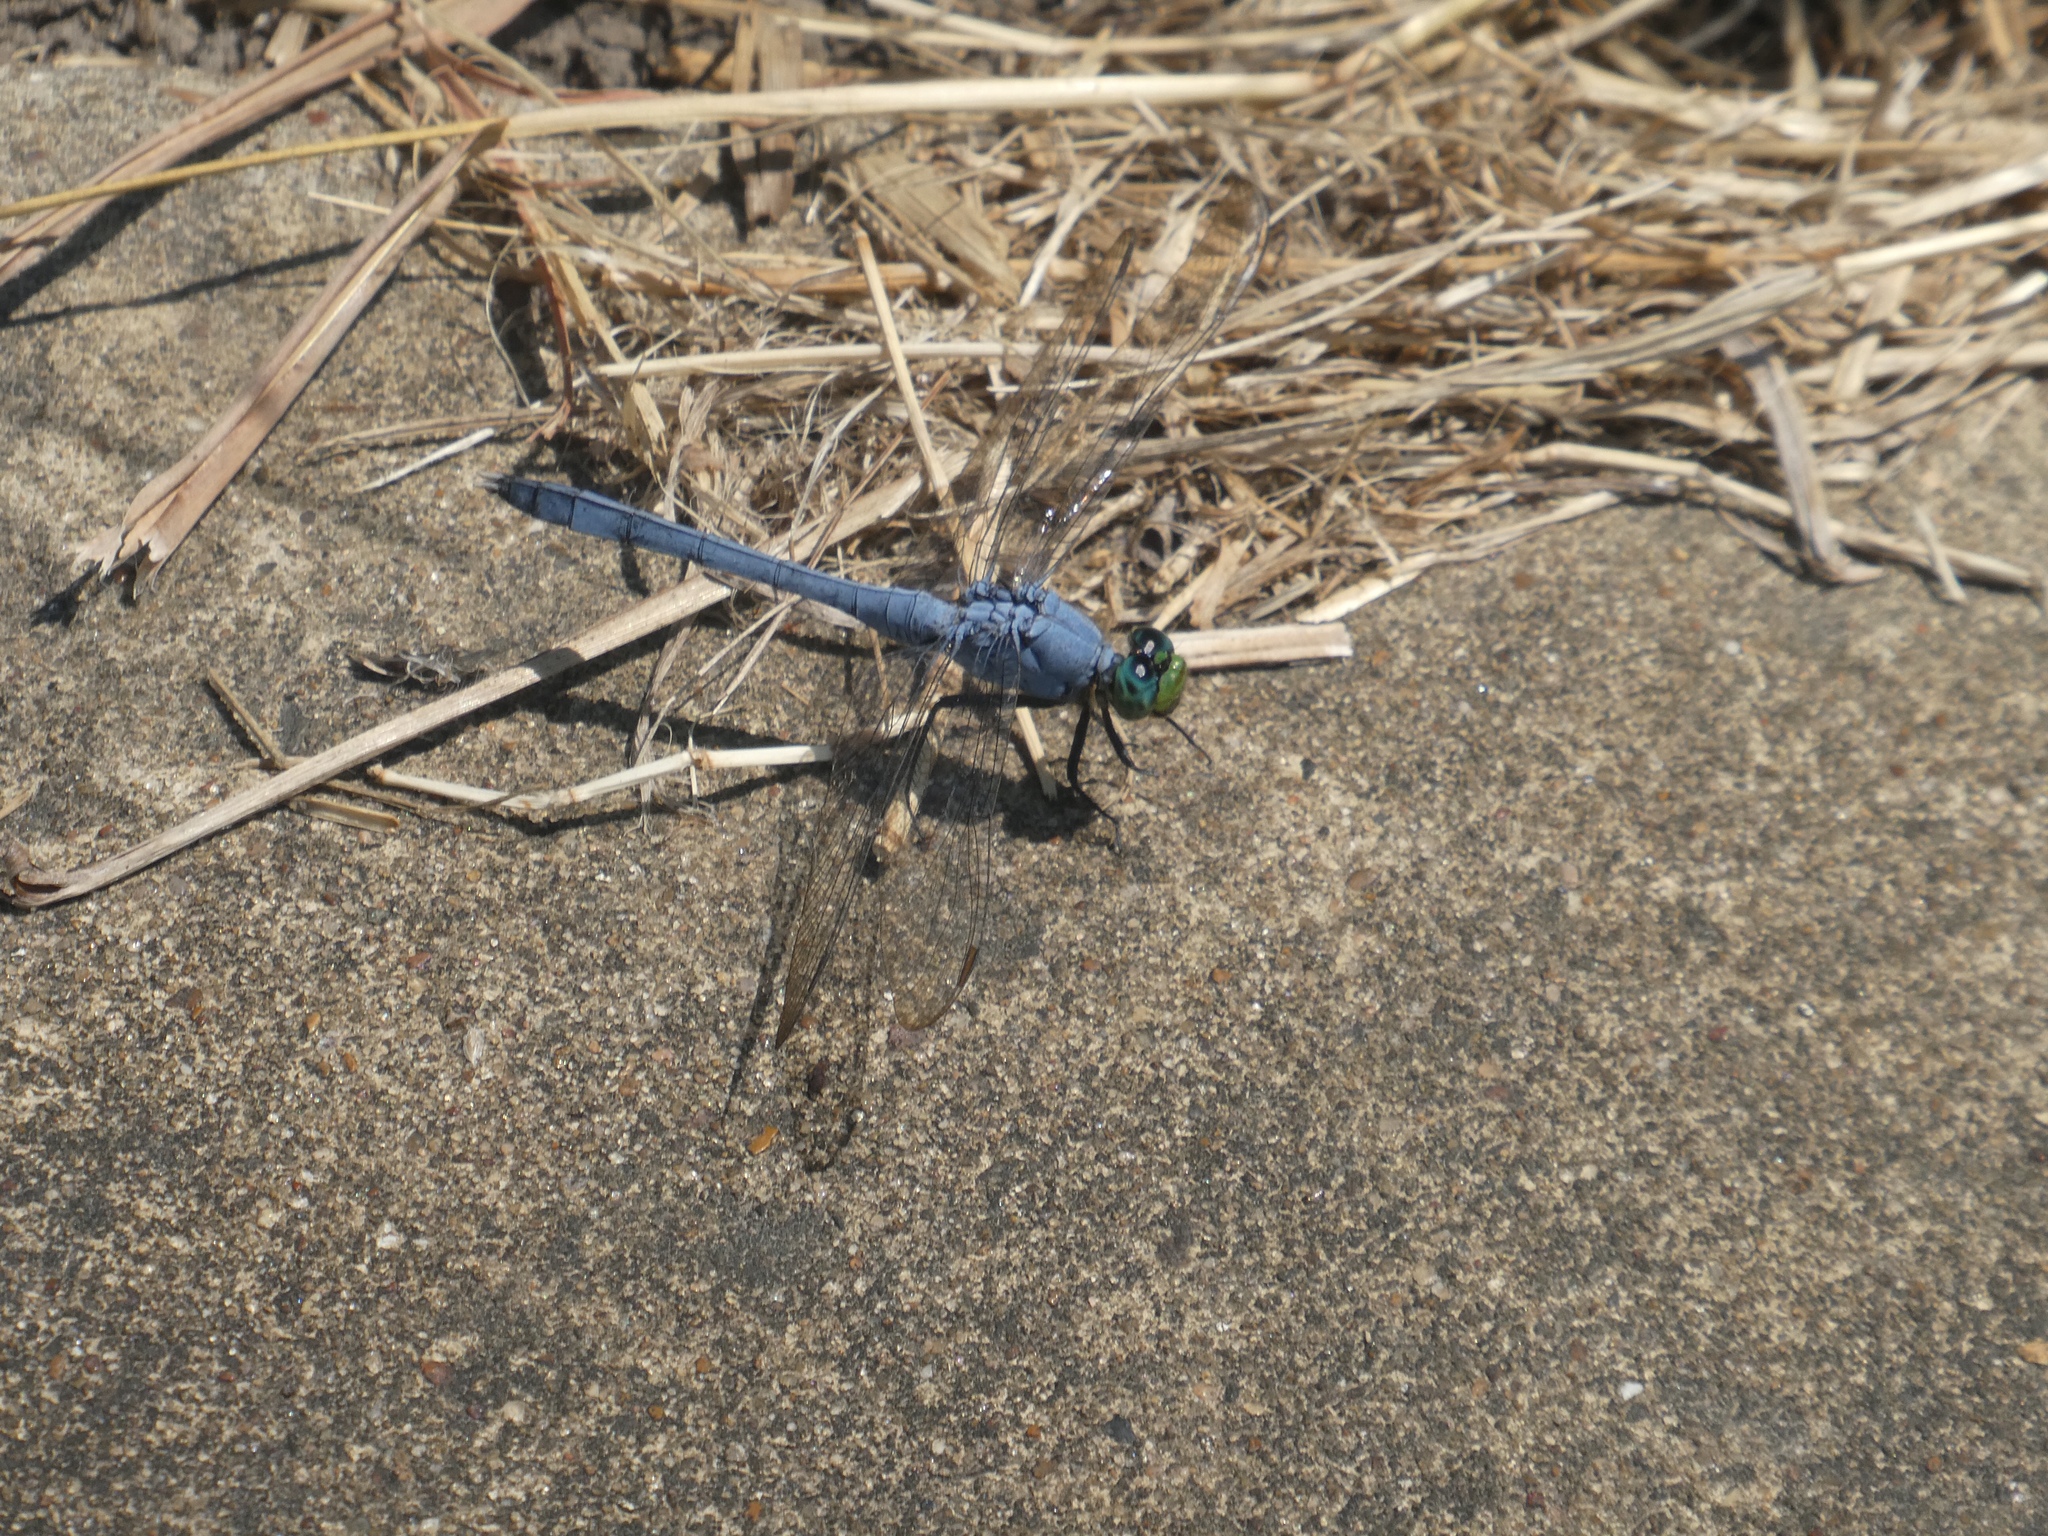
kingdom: Animalia
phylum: Arthropoda
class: Insecta
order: Odonata
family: Libellulidae
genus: Erythemis
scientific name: Erythemis simplicicollis
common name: Eastern pondhawk
